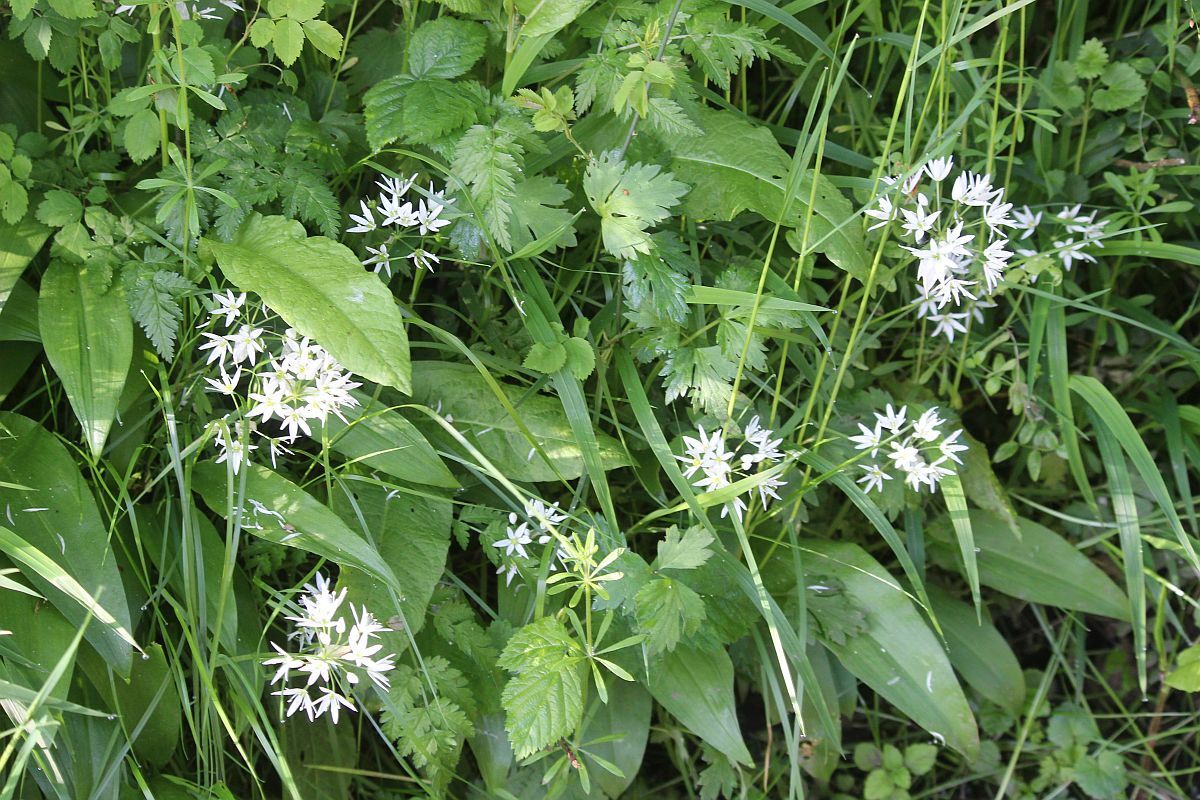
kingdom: Plantae
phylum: Tracheophyta
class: Liliopsida
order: Asparagales
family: Amaryllidaceae
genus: Allium
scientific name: Allium ursinum
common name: Ramsons
